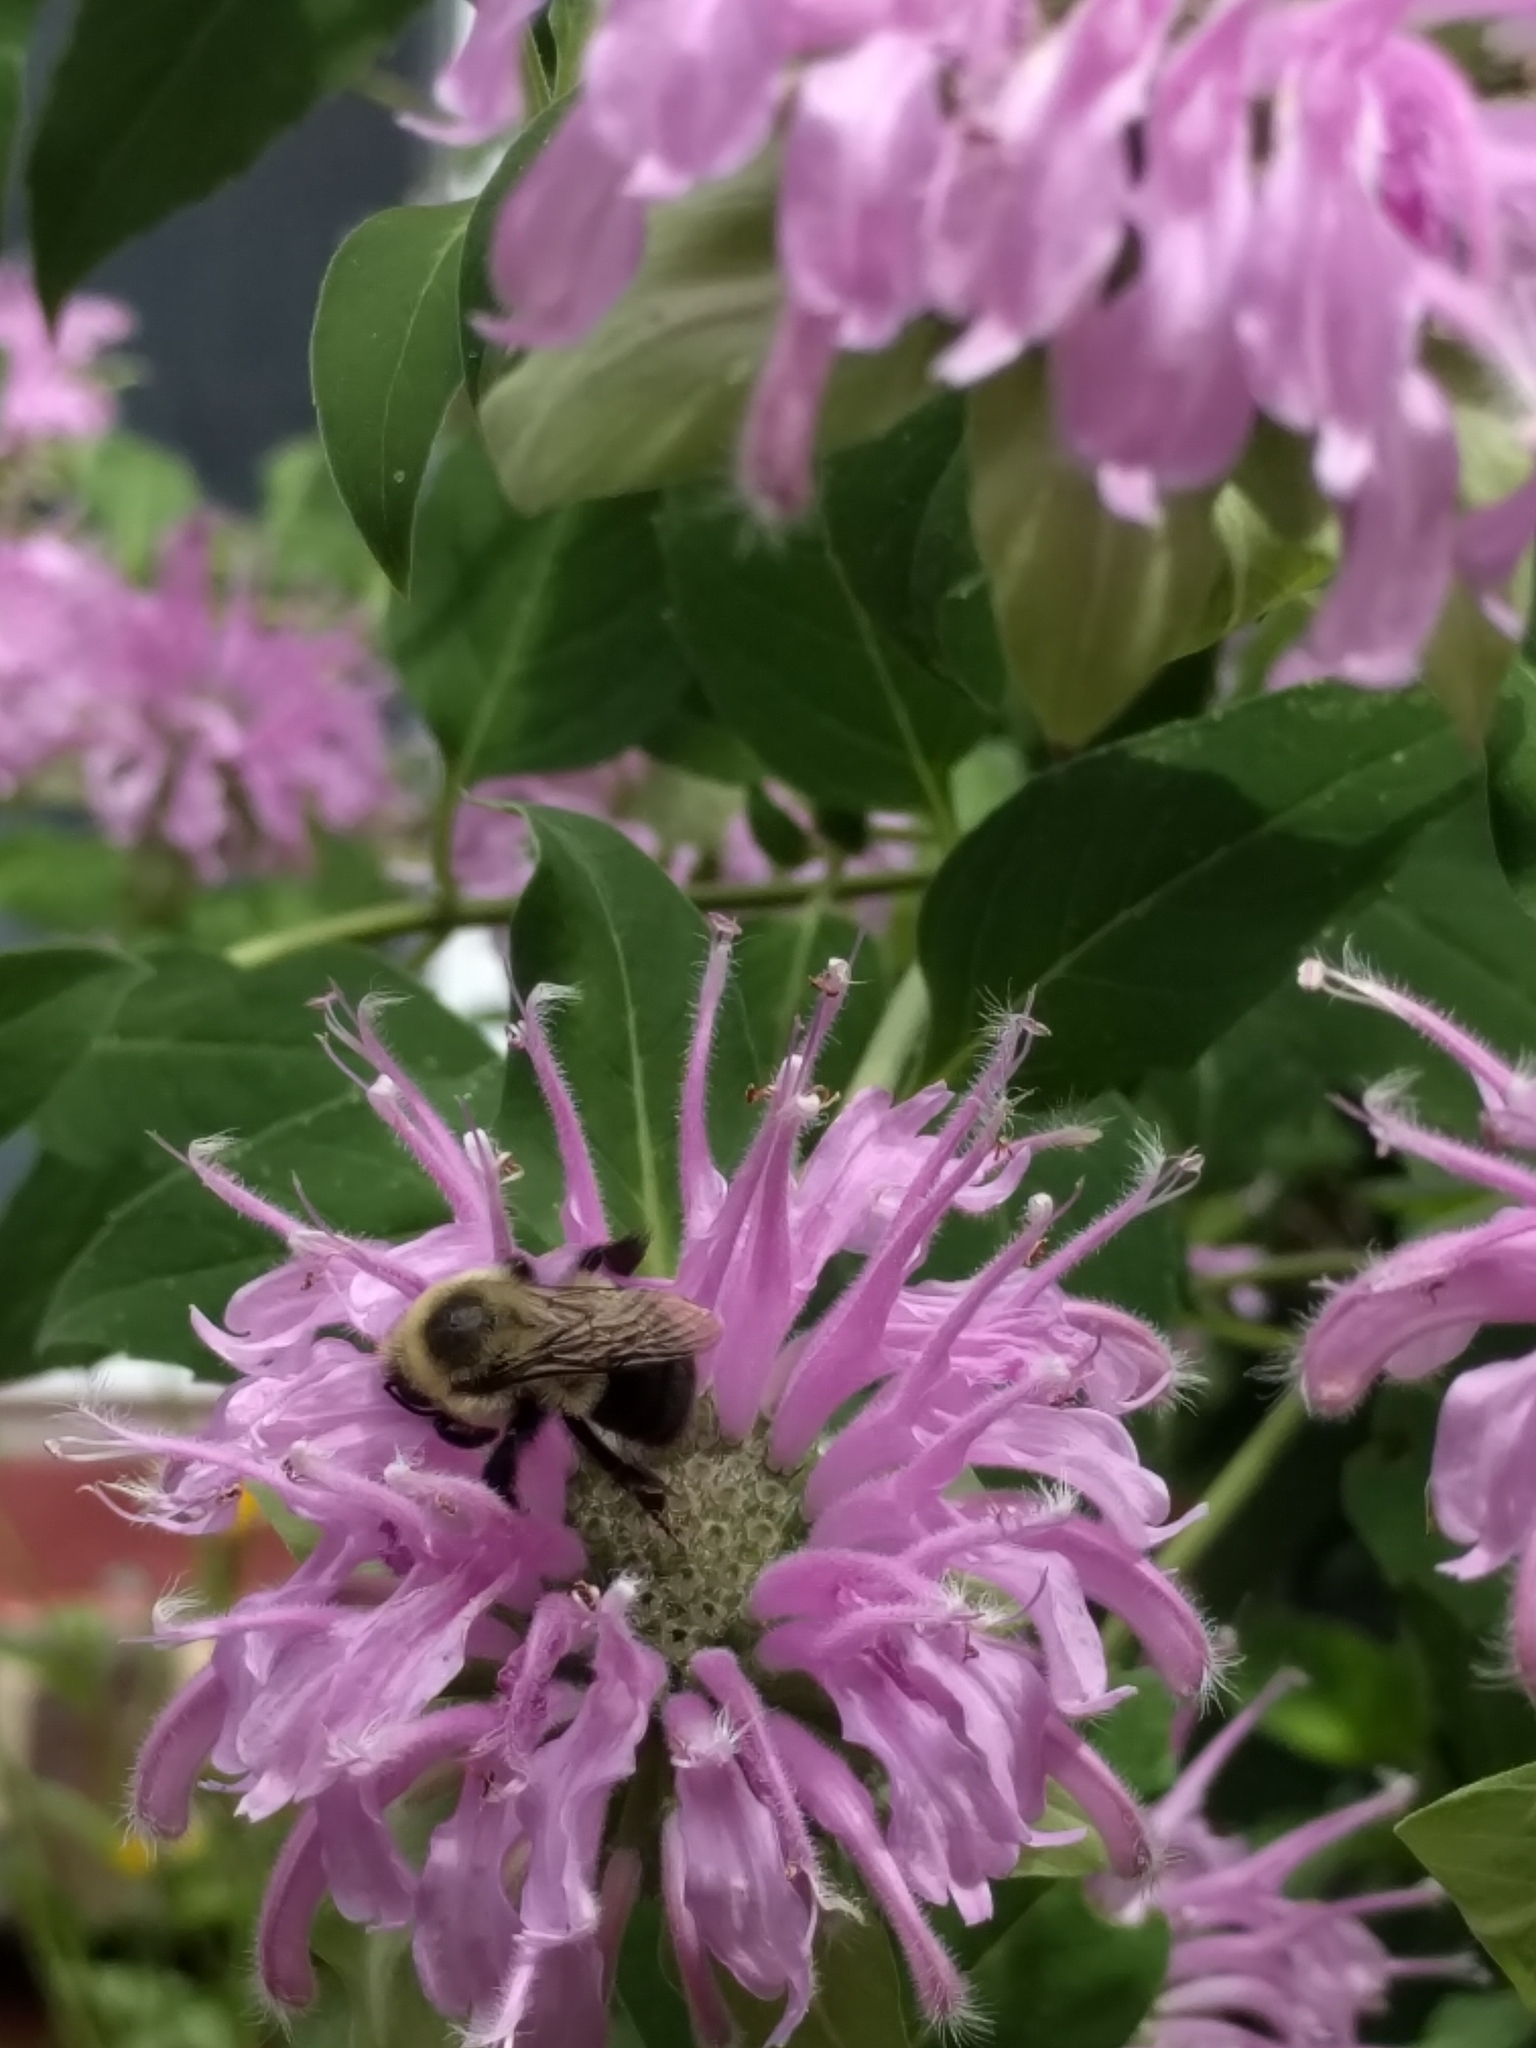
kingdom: Animalia
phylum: Arthropoda
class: Insecta
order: Hymenoptera
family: Apidae
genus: Bombus
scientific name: Bombus impatiens
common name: Common eastern bumble bee
